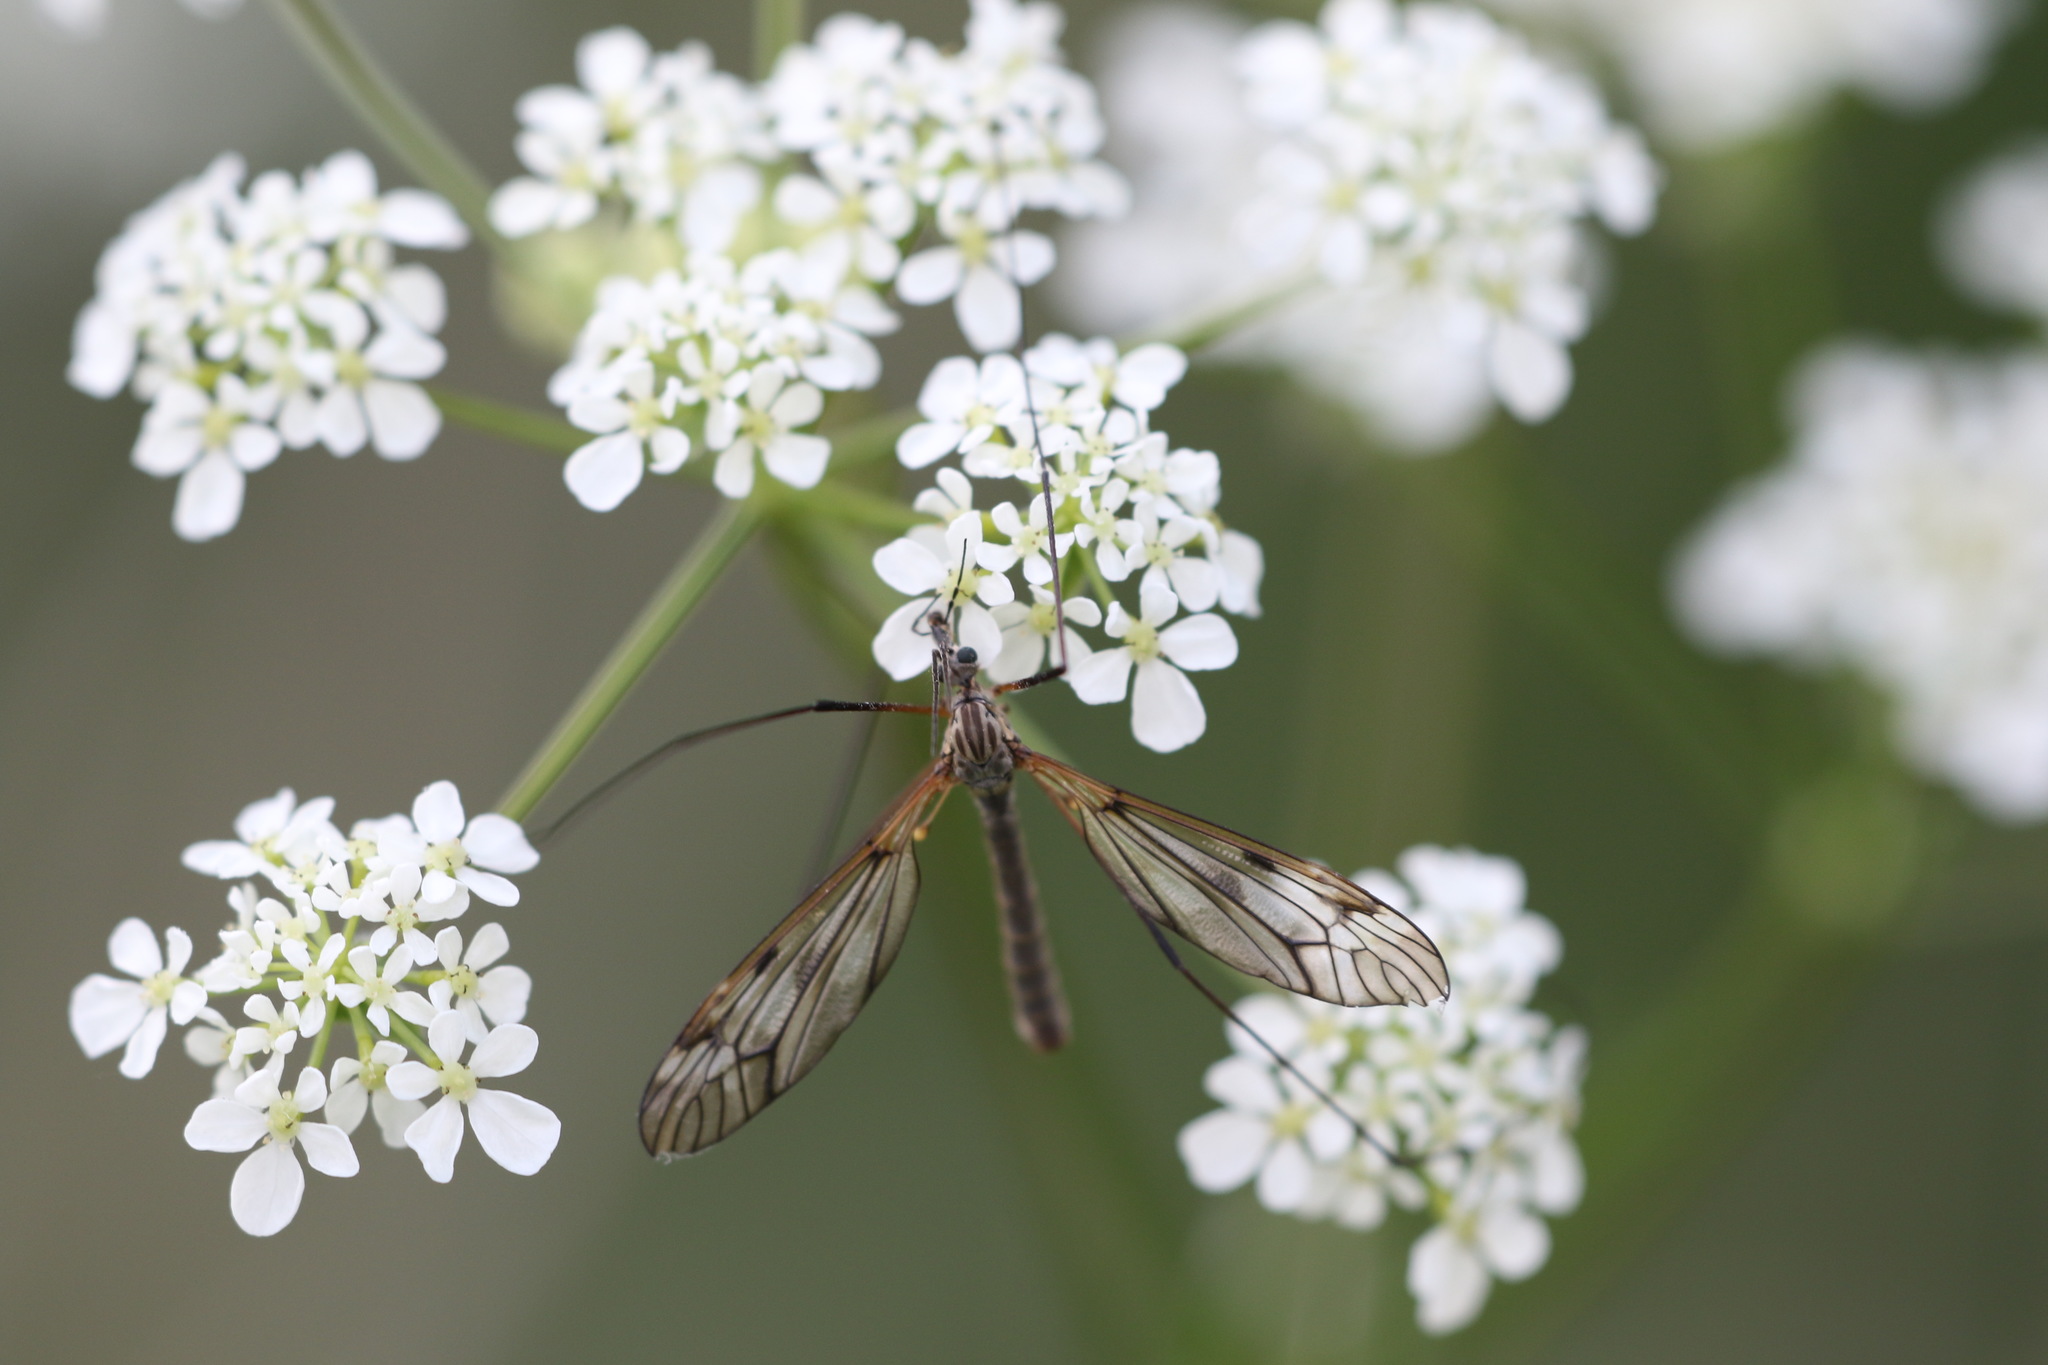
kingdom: Animalia
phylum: Arthropoda
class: Insecta
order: Diptera
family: Tipulidae
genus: Tipula
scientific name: Tipula varipennis
